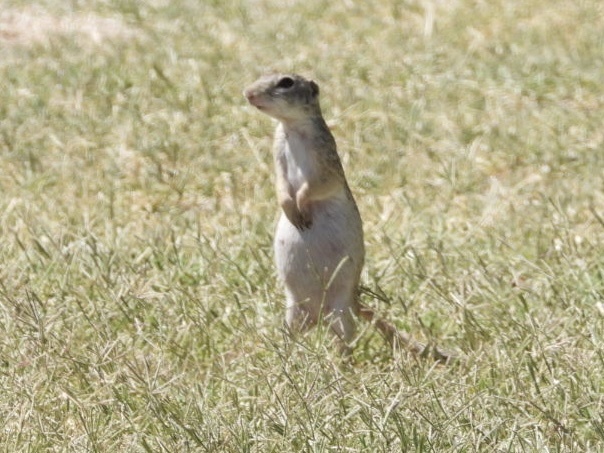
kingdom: Animalia
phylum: Chordata
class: Mammalia
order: Rodentia
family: Sciuridae
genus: Ictidomys
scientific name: Ictidomys parvidens
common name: Rio grande ground squirrel
